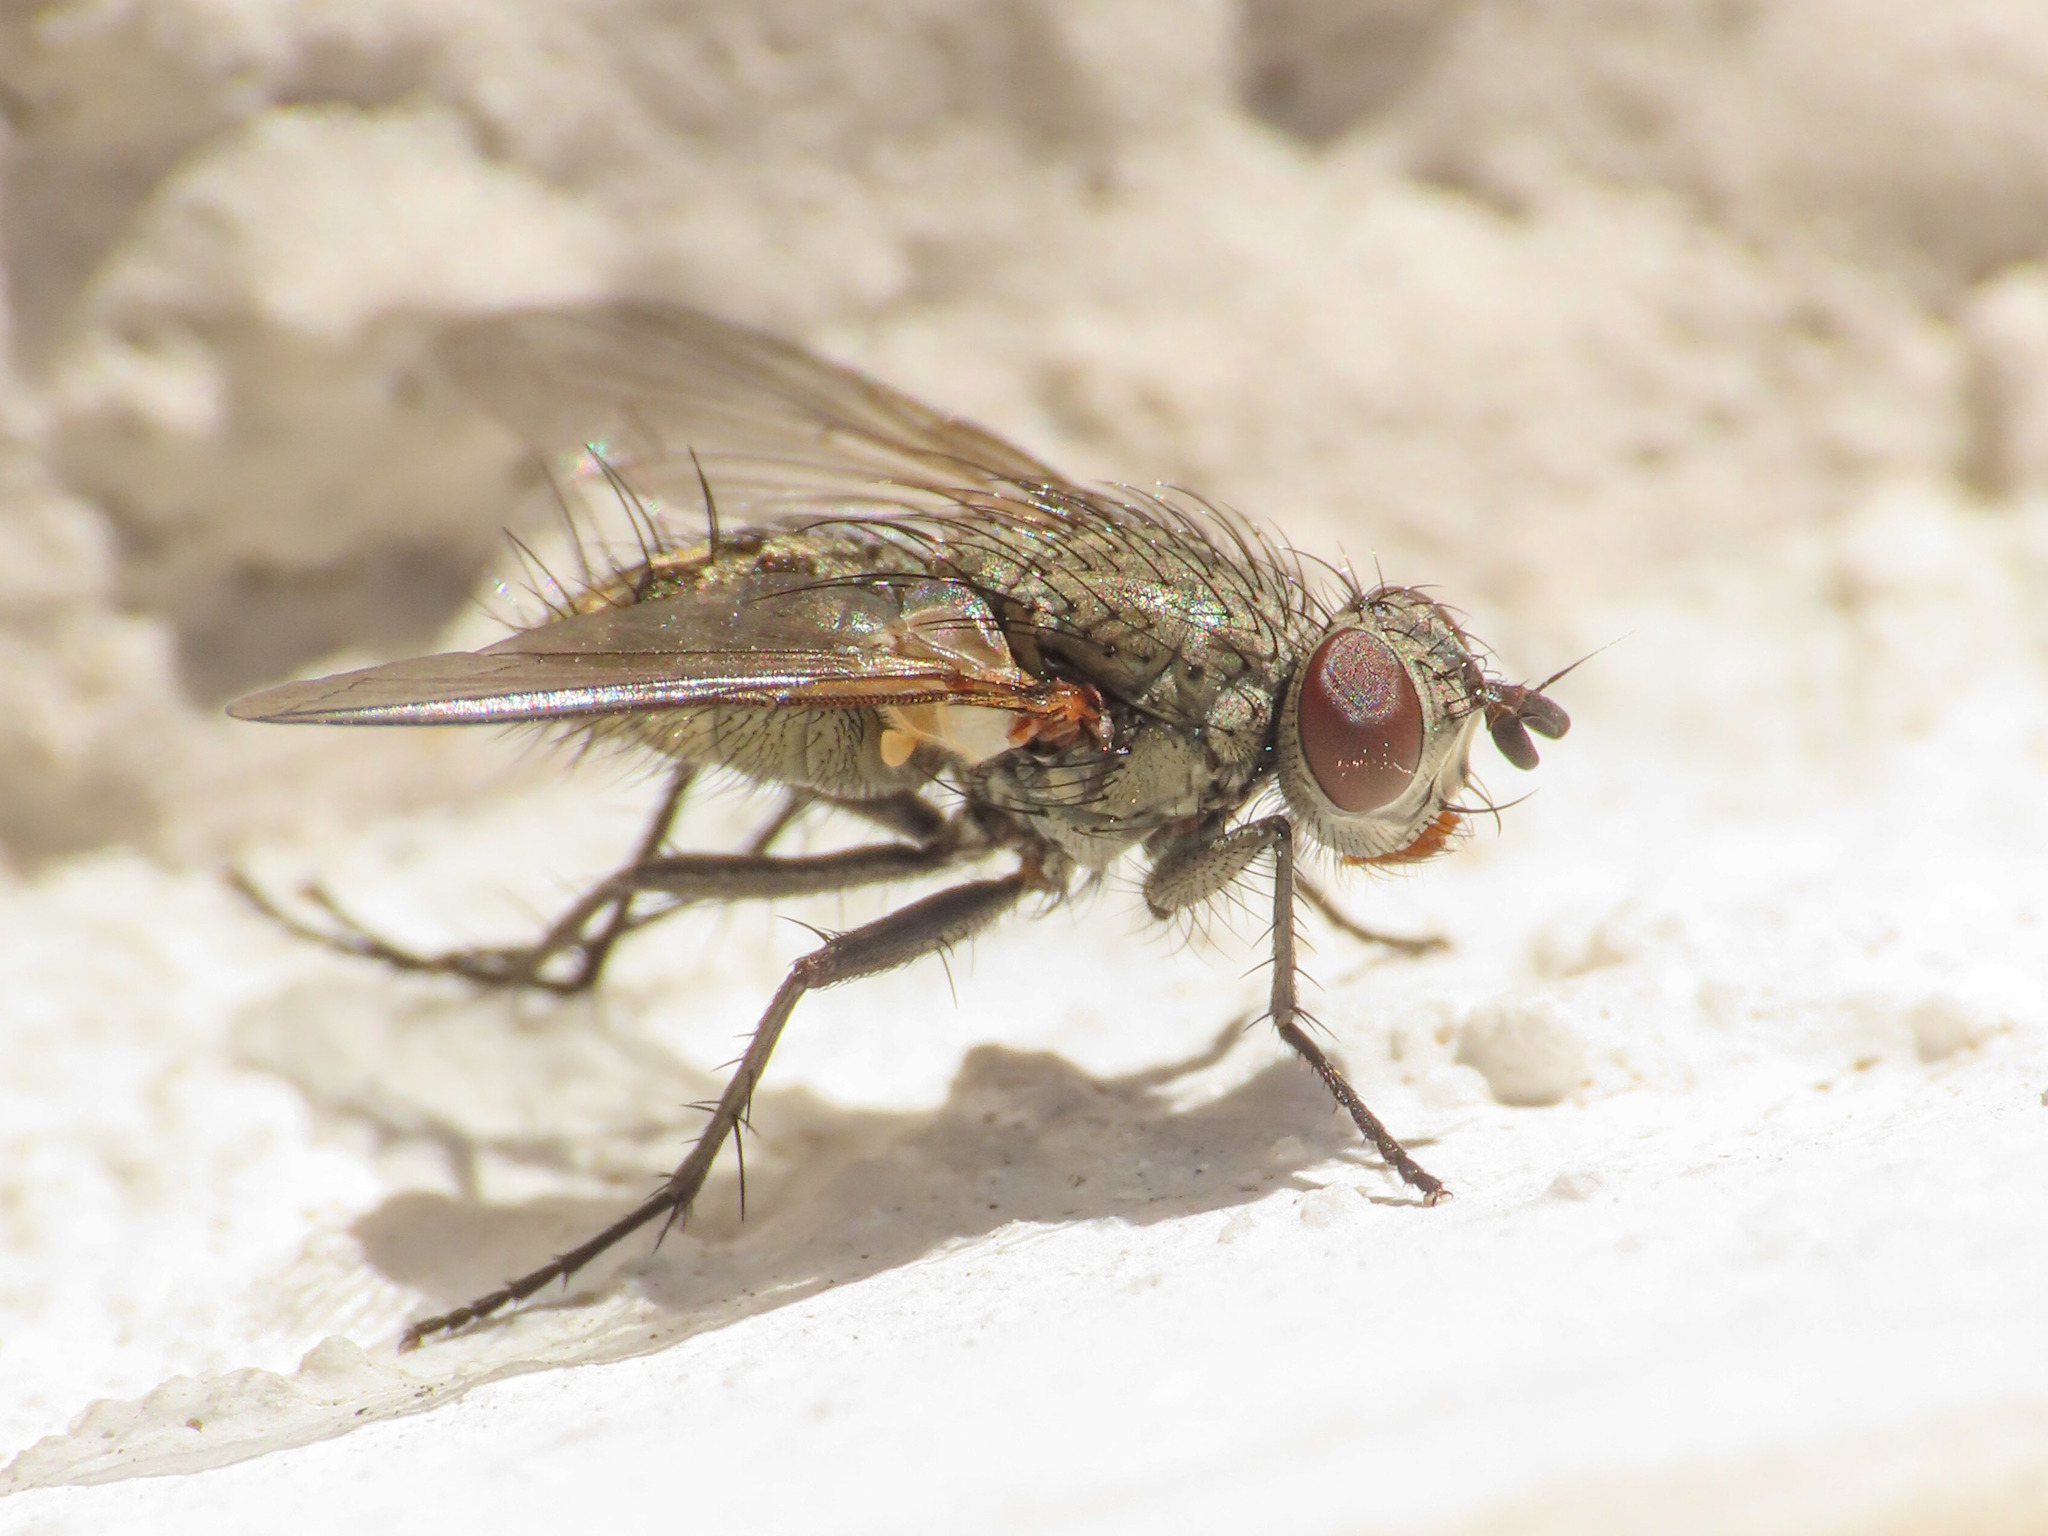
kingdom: Animalia
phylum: Arthropoda
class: Insecta
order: Diptera
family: Tachinidae
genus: Macquartia
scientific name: Macquartia tessellum
